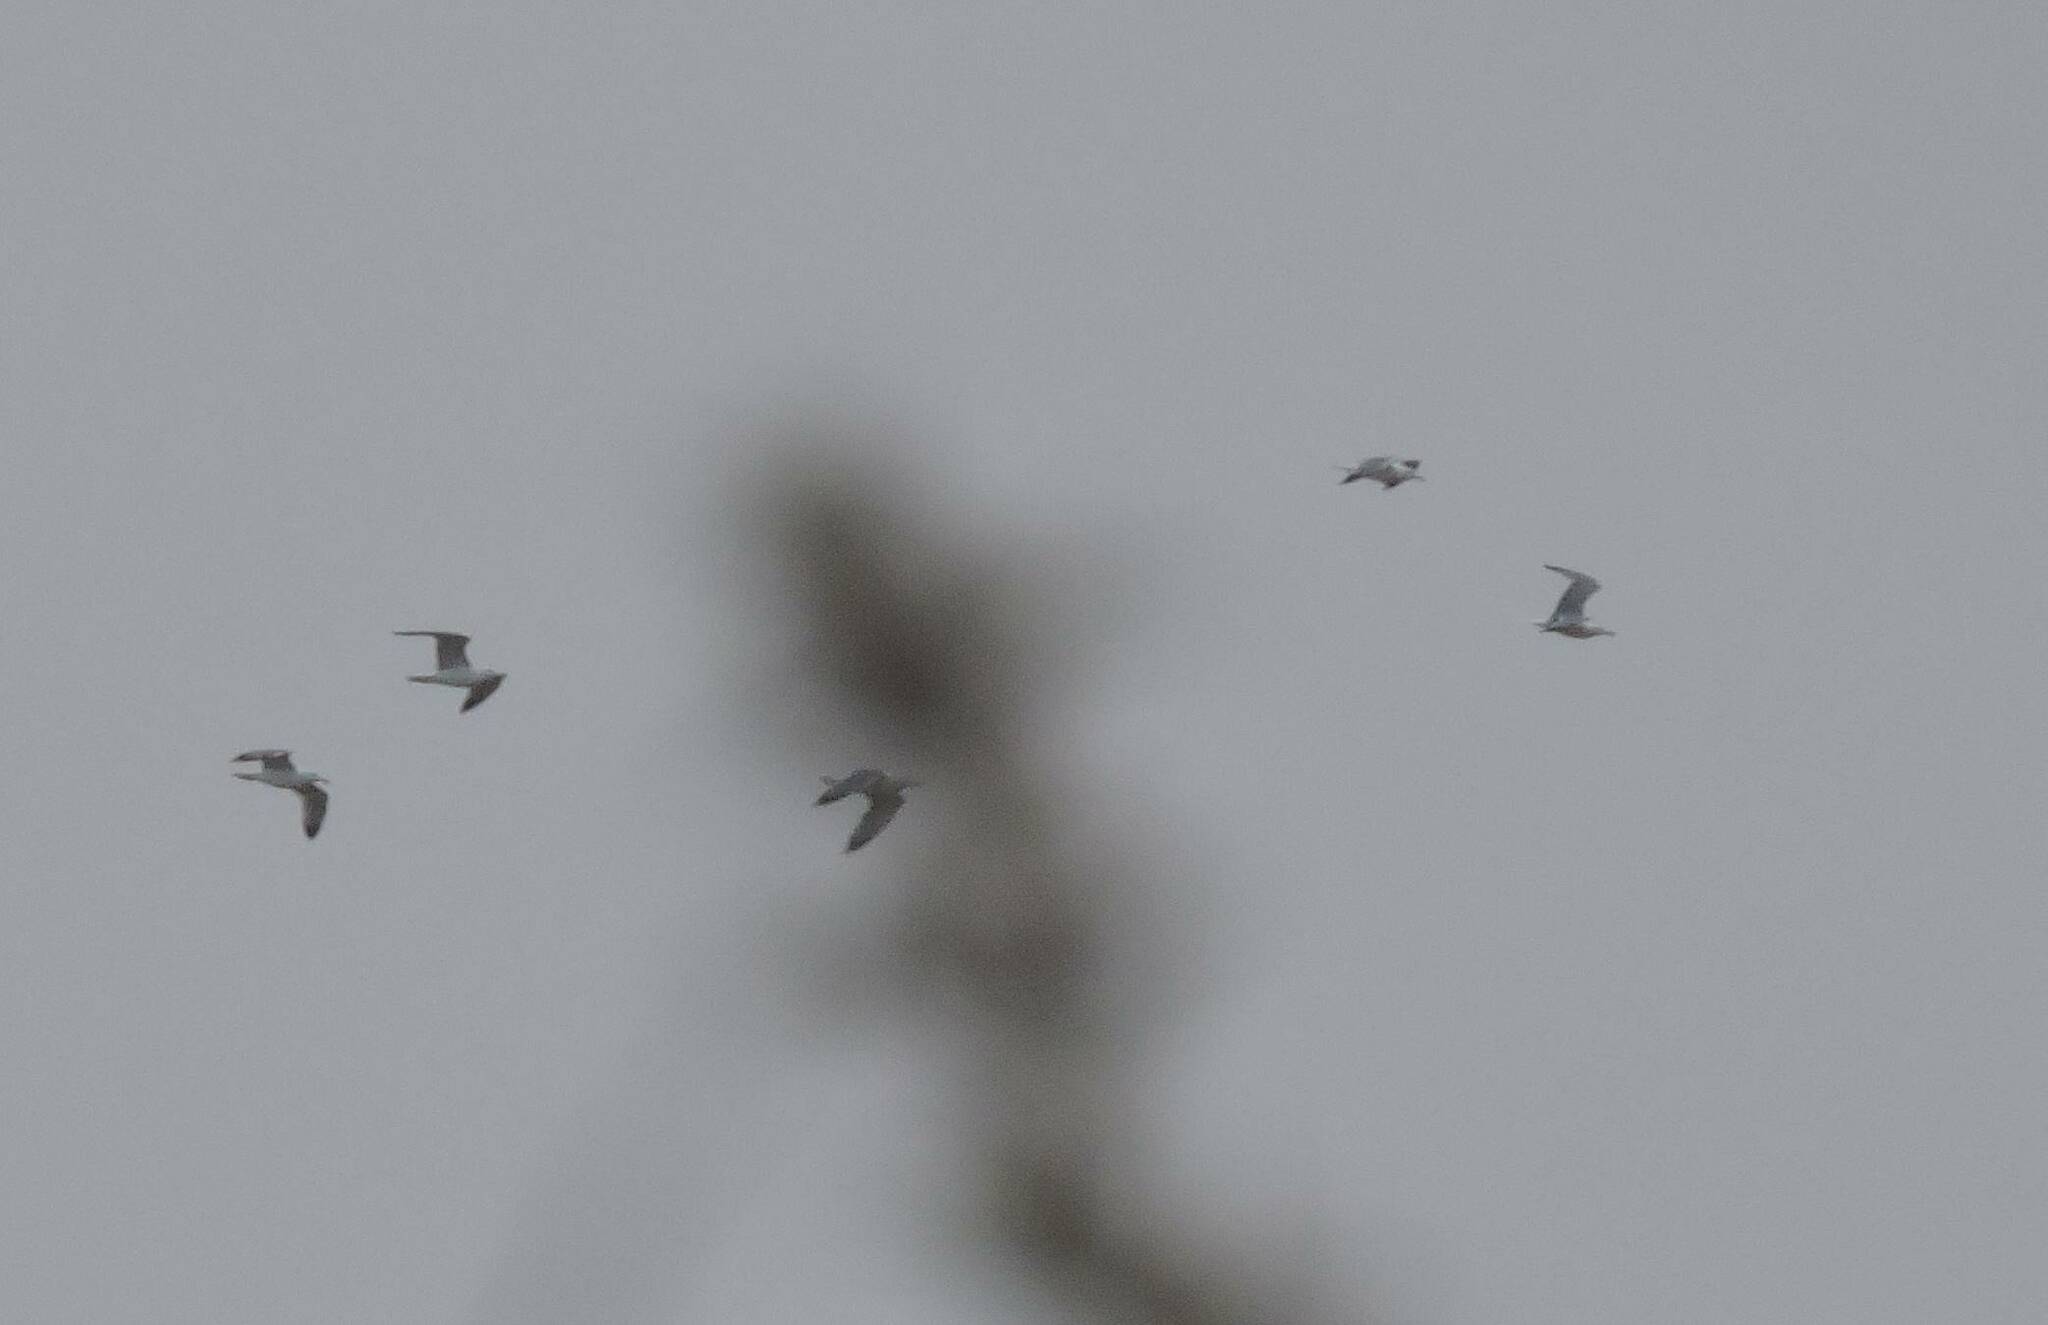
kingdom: Animalia
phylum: Chordata
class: Aves
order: Charadriiformes
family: Laridae
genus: Larus
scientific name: Larus michahellis
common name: Yellow-legged gull
